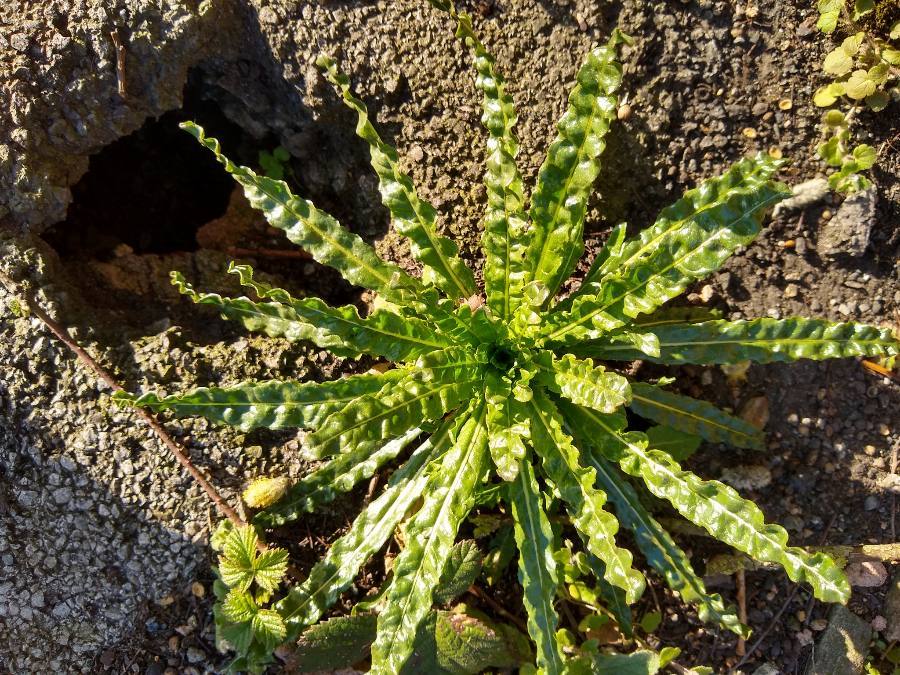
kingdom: Plantae
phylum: Tracheophyta
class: Magnoliopsida
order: Brassicales
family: Resedaceae
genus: Reseda
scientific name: Reseda luteola
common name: Weld
